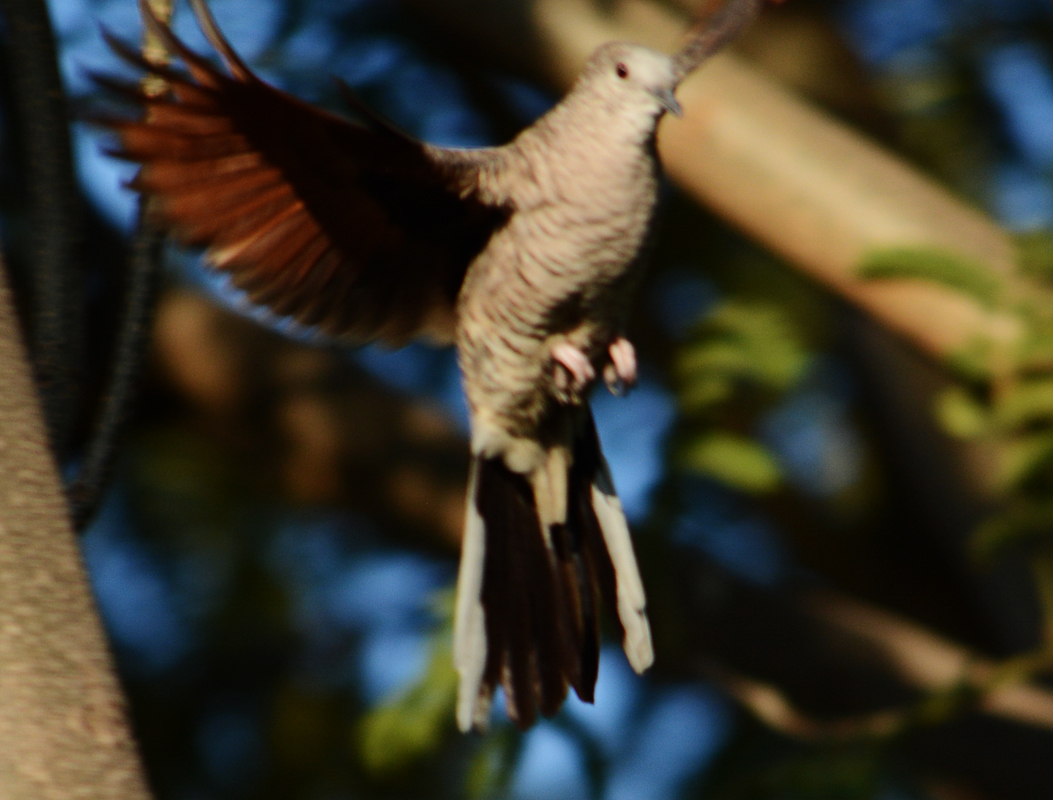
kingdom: Animalia
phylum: Chordata
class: Aves
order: Columbiformes
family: Columbidae
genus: Columbina
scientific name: Columbina inca
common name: Inca dove
